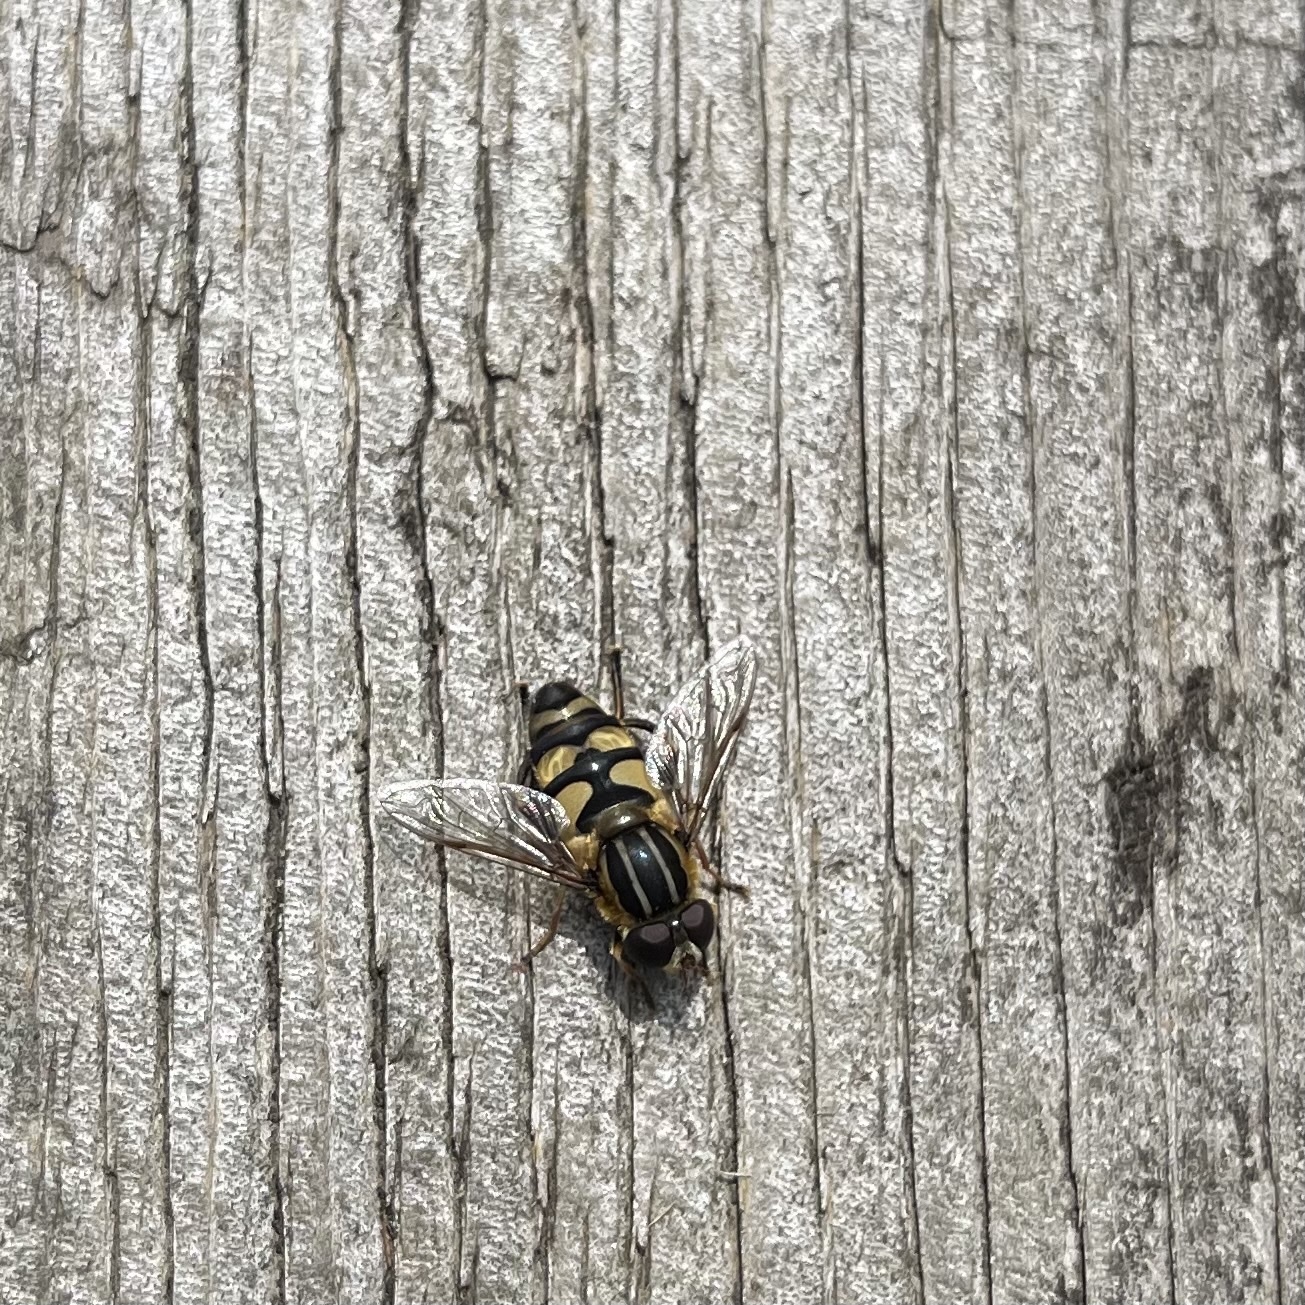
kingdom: Animalia
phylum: Arthropoda
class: Insecta
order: Diptera
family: Syrphidae
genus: Helophilus
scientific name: Helophilus fasciatus
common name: Narrow-headed marsh fly
